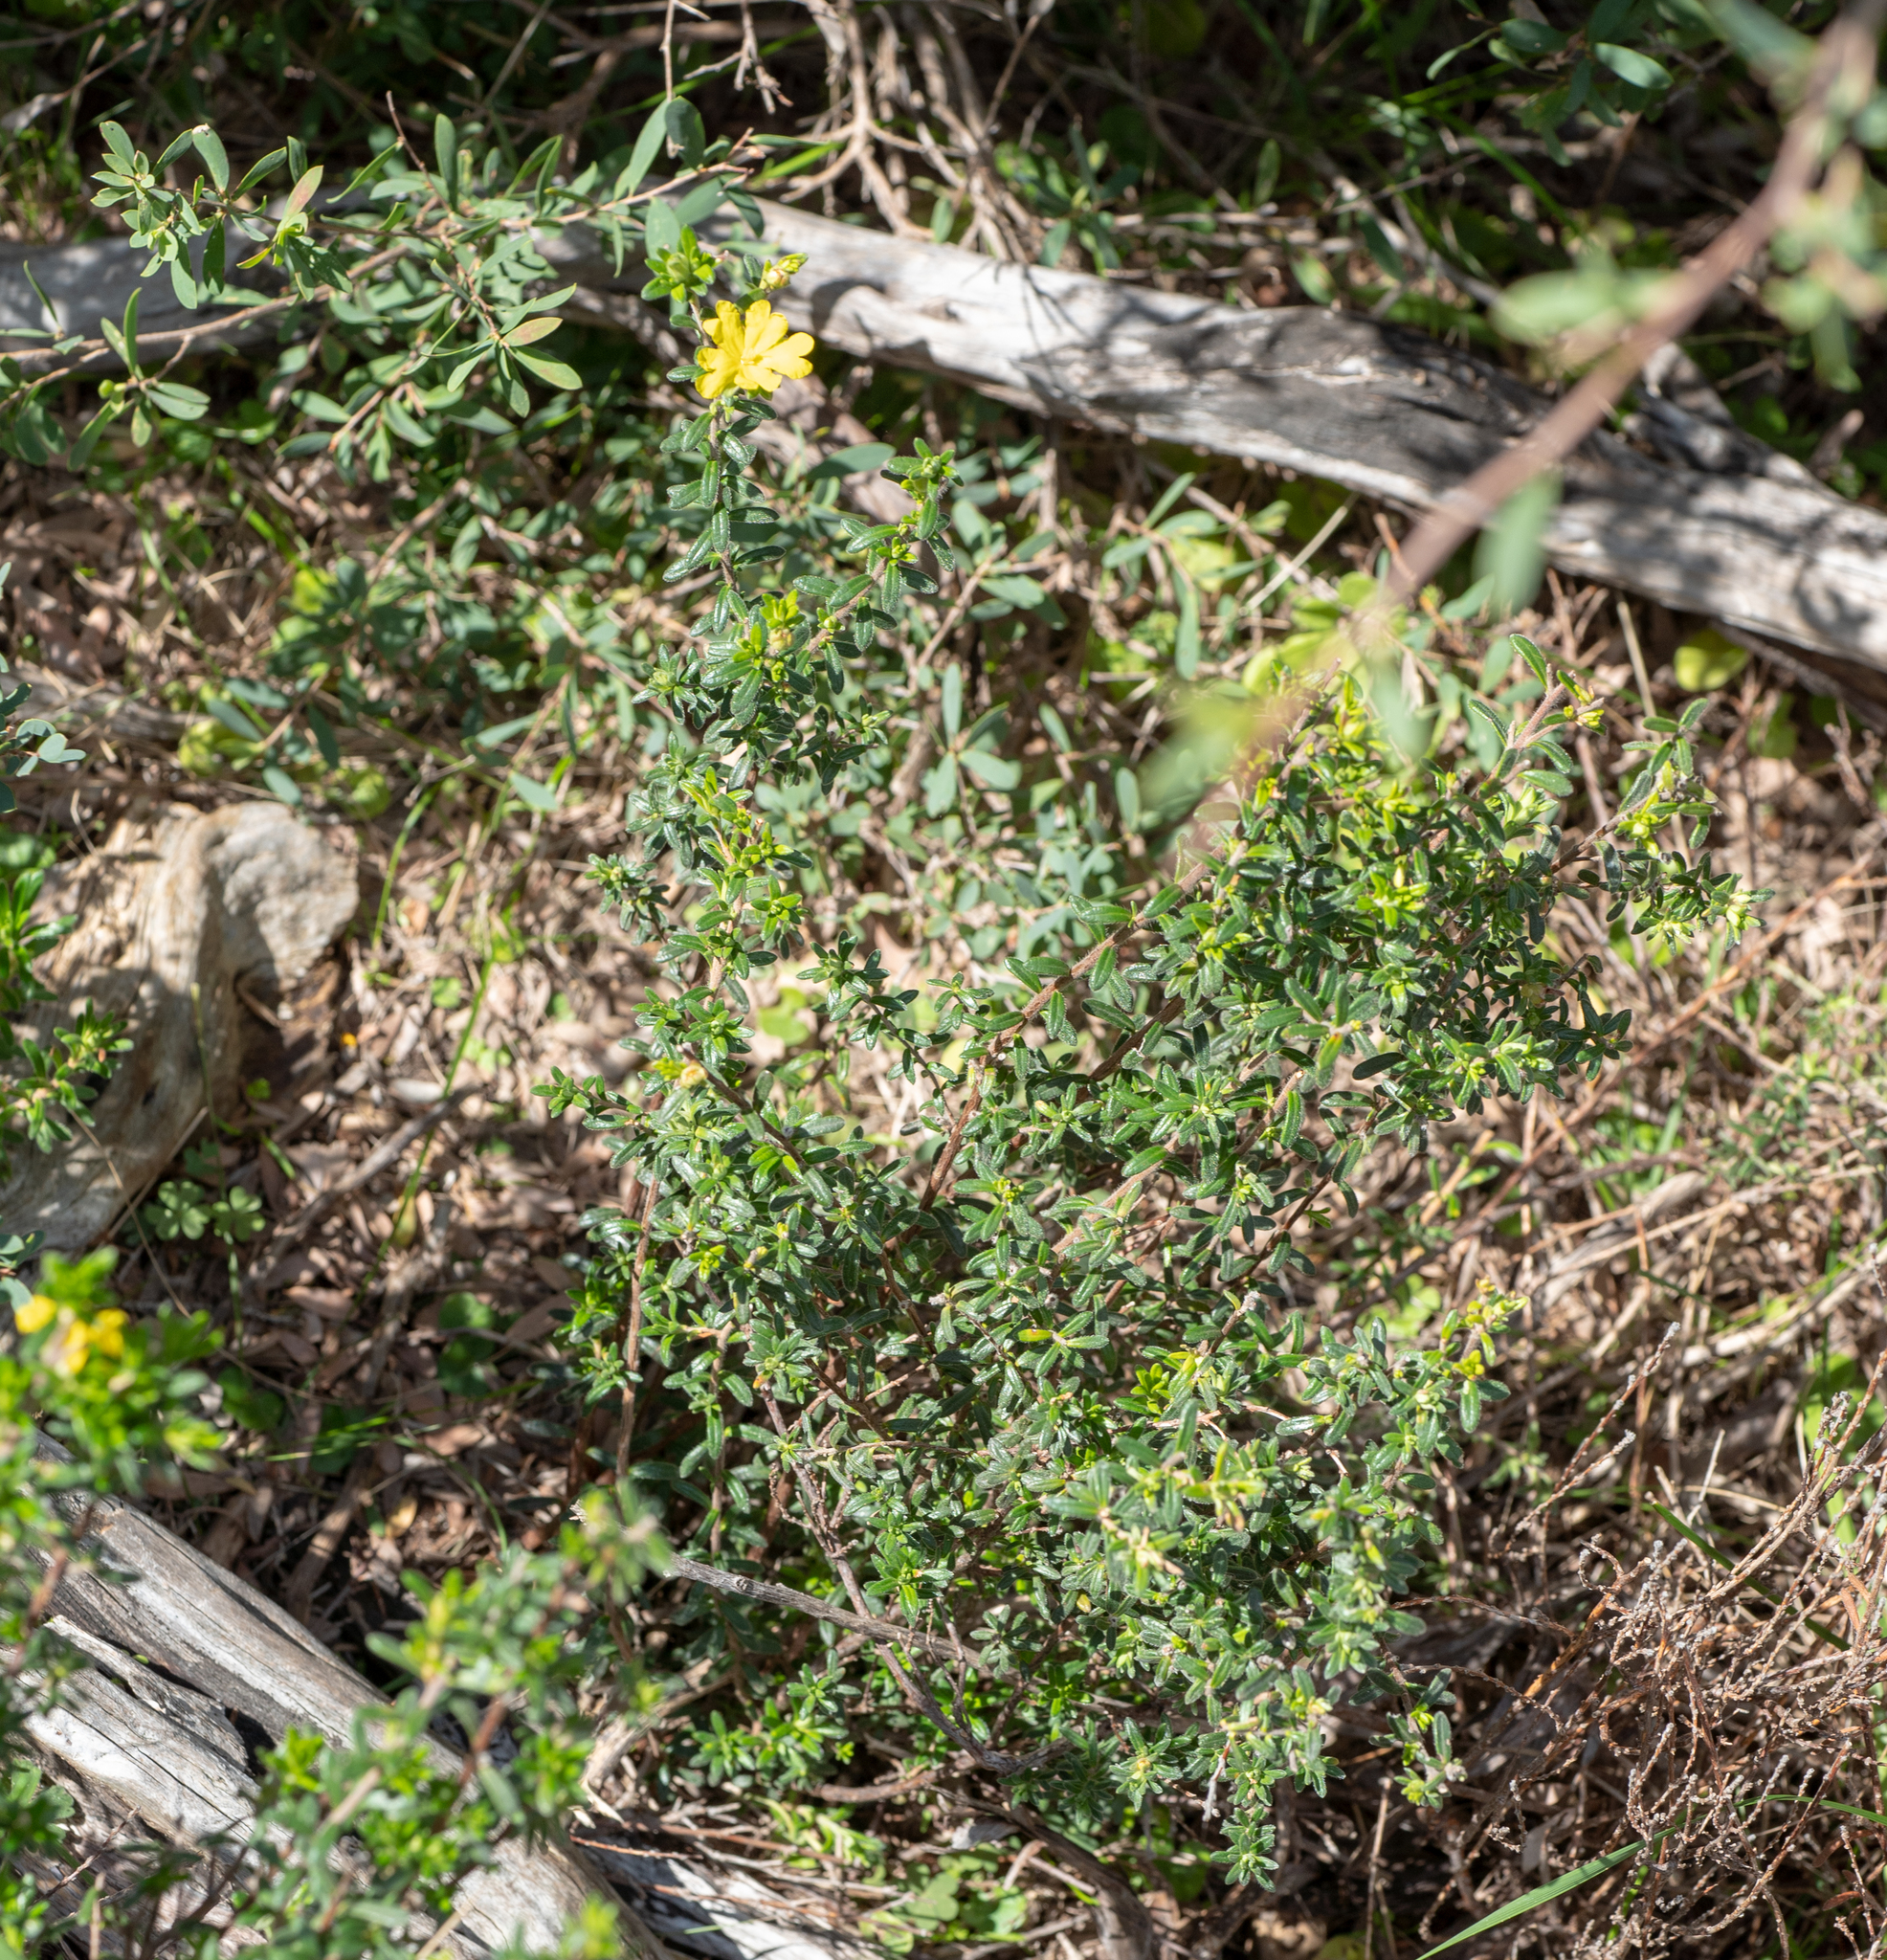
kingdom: Plantae
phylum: Tracheophyta
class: Magnoliopsida
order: Dilleniales
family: Dilleniaceae
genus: Hibbertia
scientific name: Hibbertia sericea
